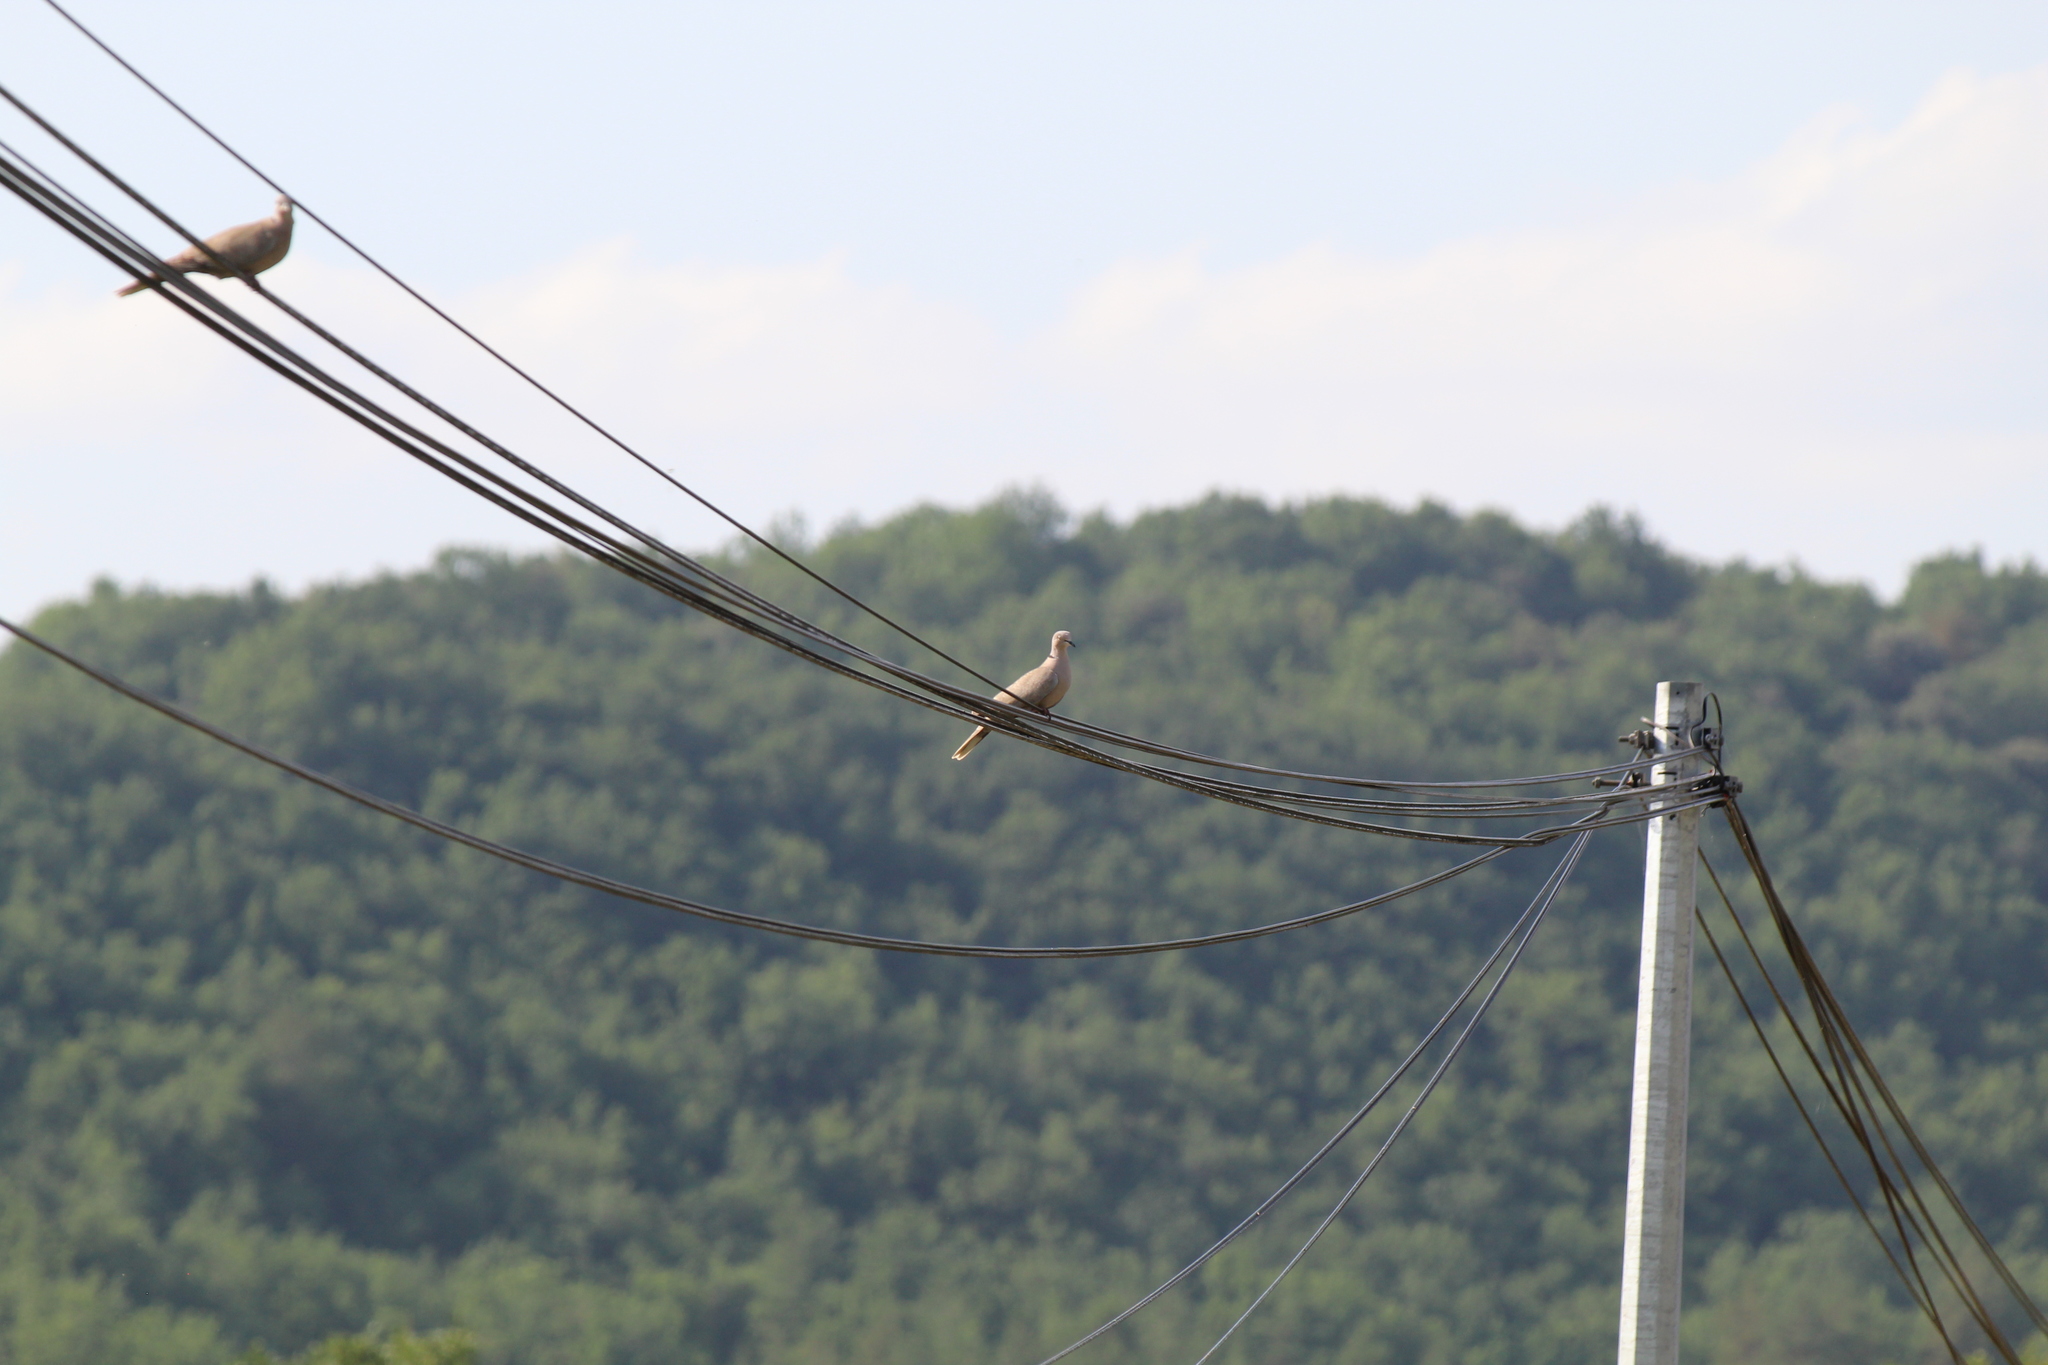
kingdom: Animalia
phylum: Chordata
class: Aves
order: Columbiformes
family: Columbidae
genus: Streptopelia
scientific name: Streptopelia decaocto
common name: Eurasian collared dove
